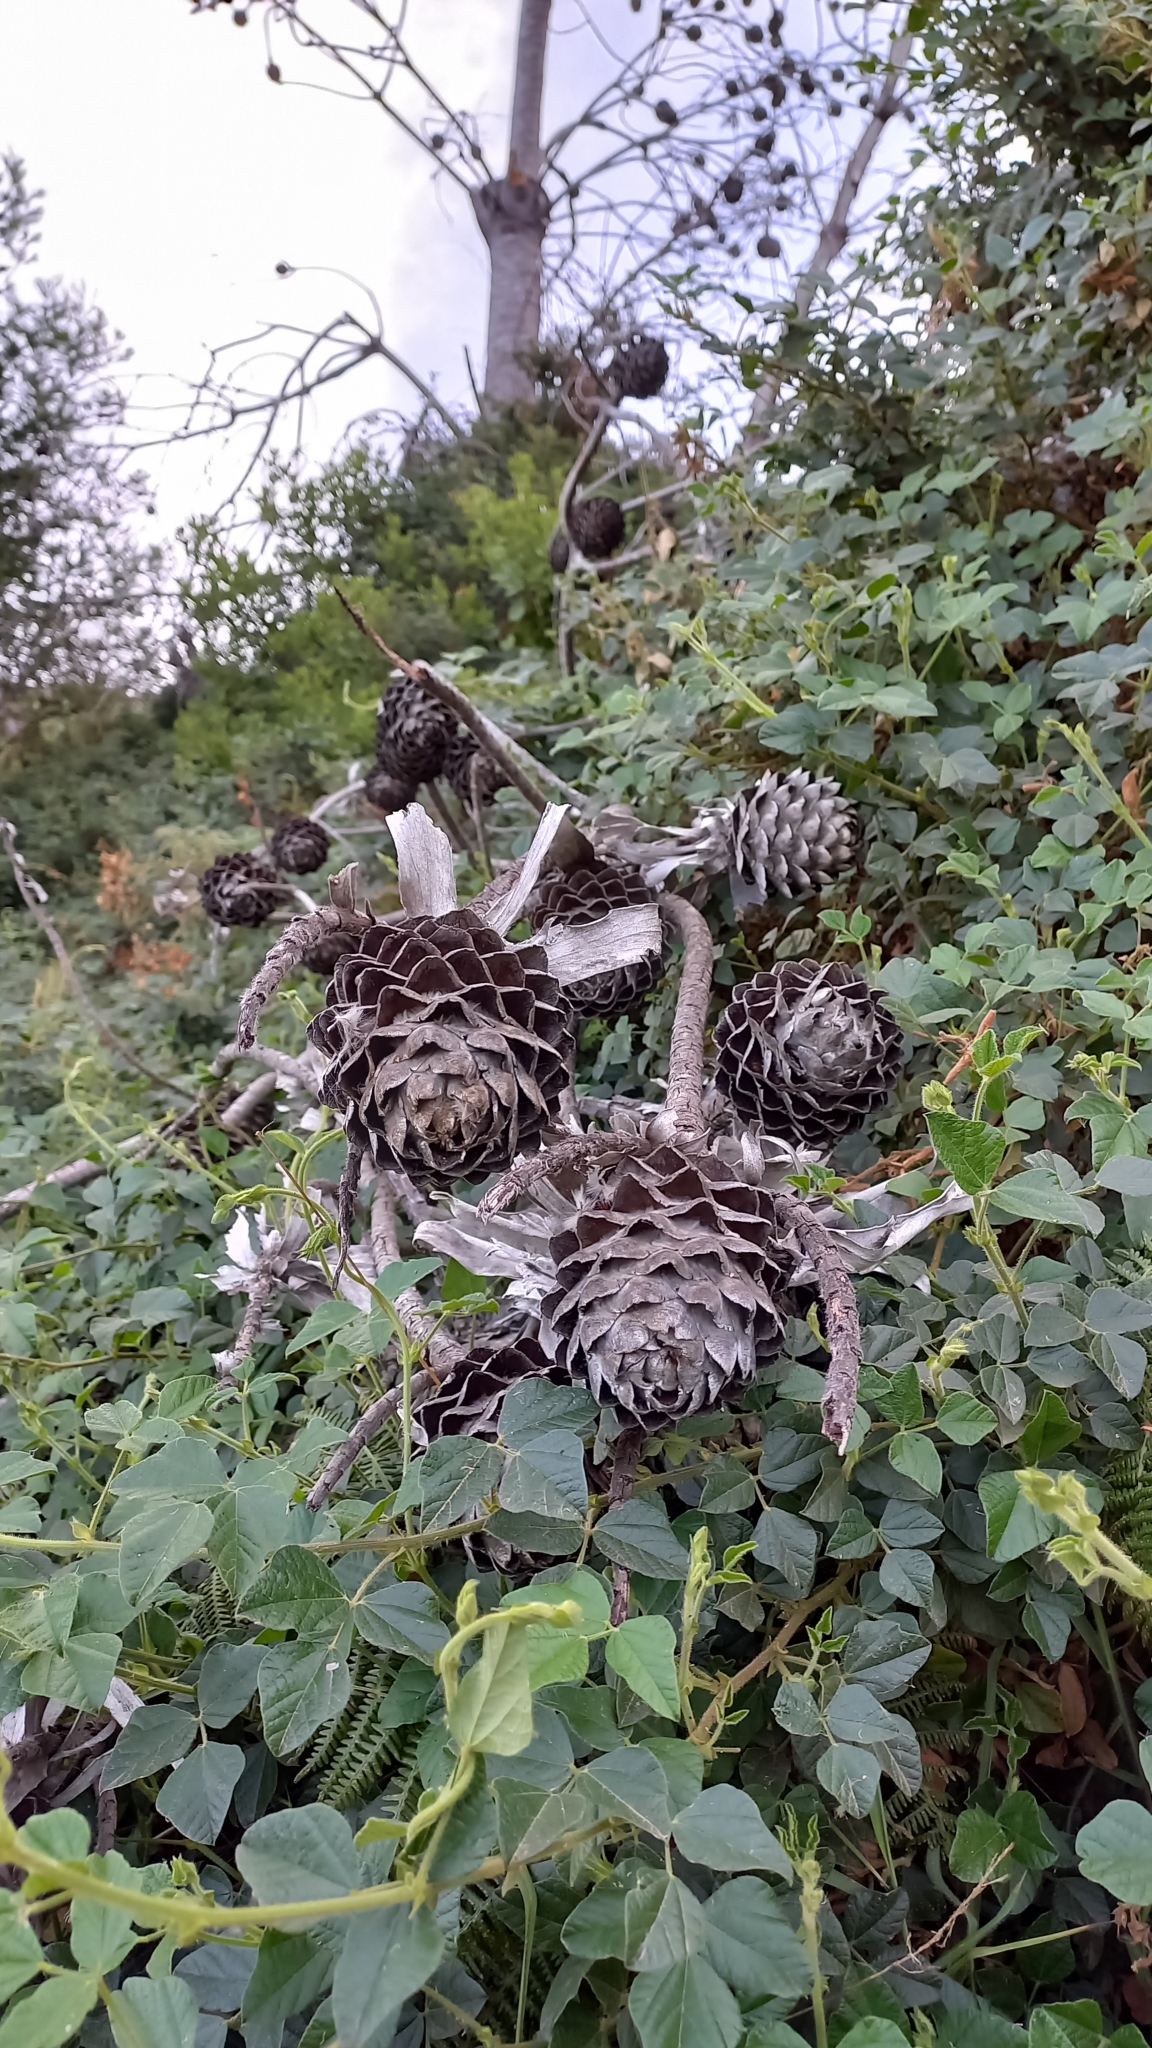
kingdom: Plantae
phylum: Tracheophyta
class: Magnoliopsida
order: Proteales
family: Proteaceae
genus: Leucadendron
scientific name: Leucadendron argenteum
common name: Cape silver tree
